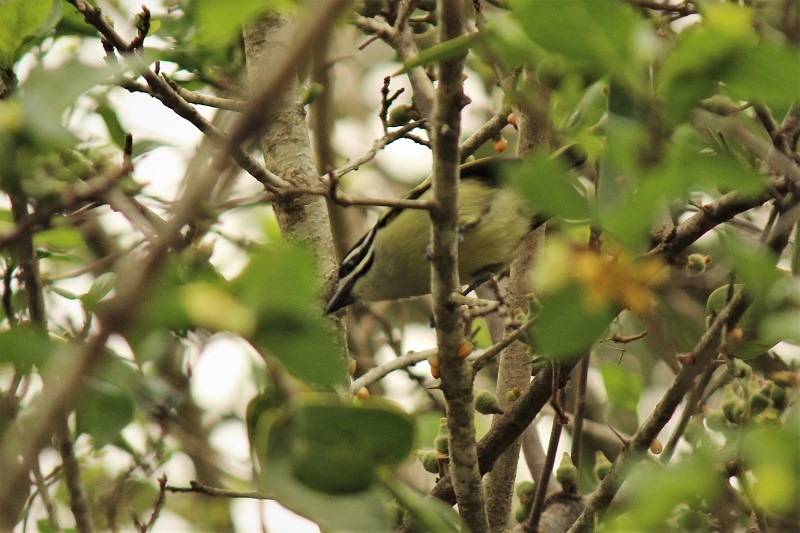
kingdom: Animalia
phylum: Chordata
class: Aves
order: Piciformes
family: Lybiidae
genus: Pogoniulus
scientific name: Pogoniulus bilineatus
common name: Yellow-rumped tinkerbird
